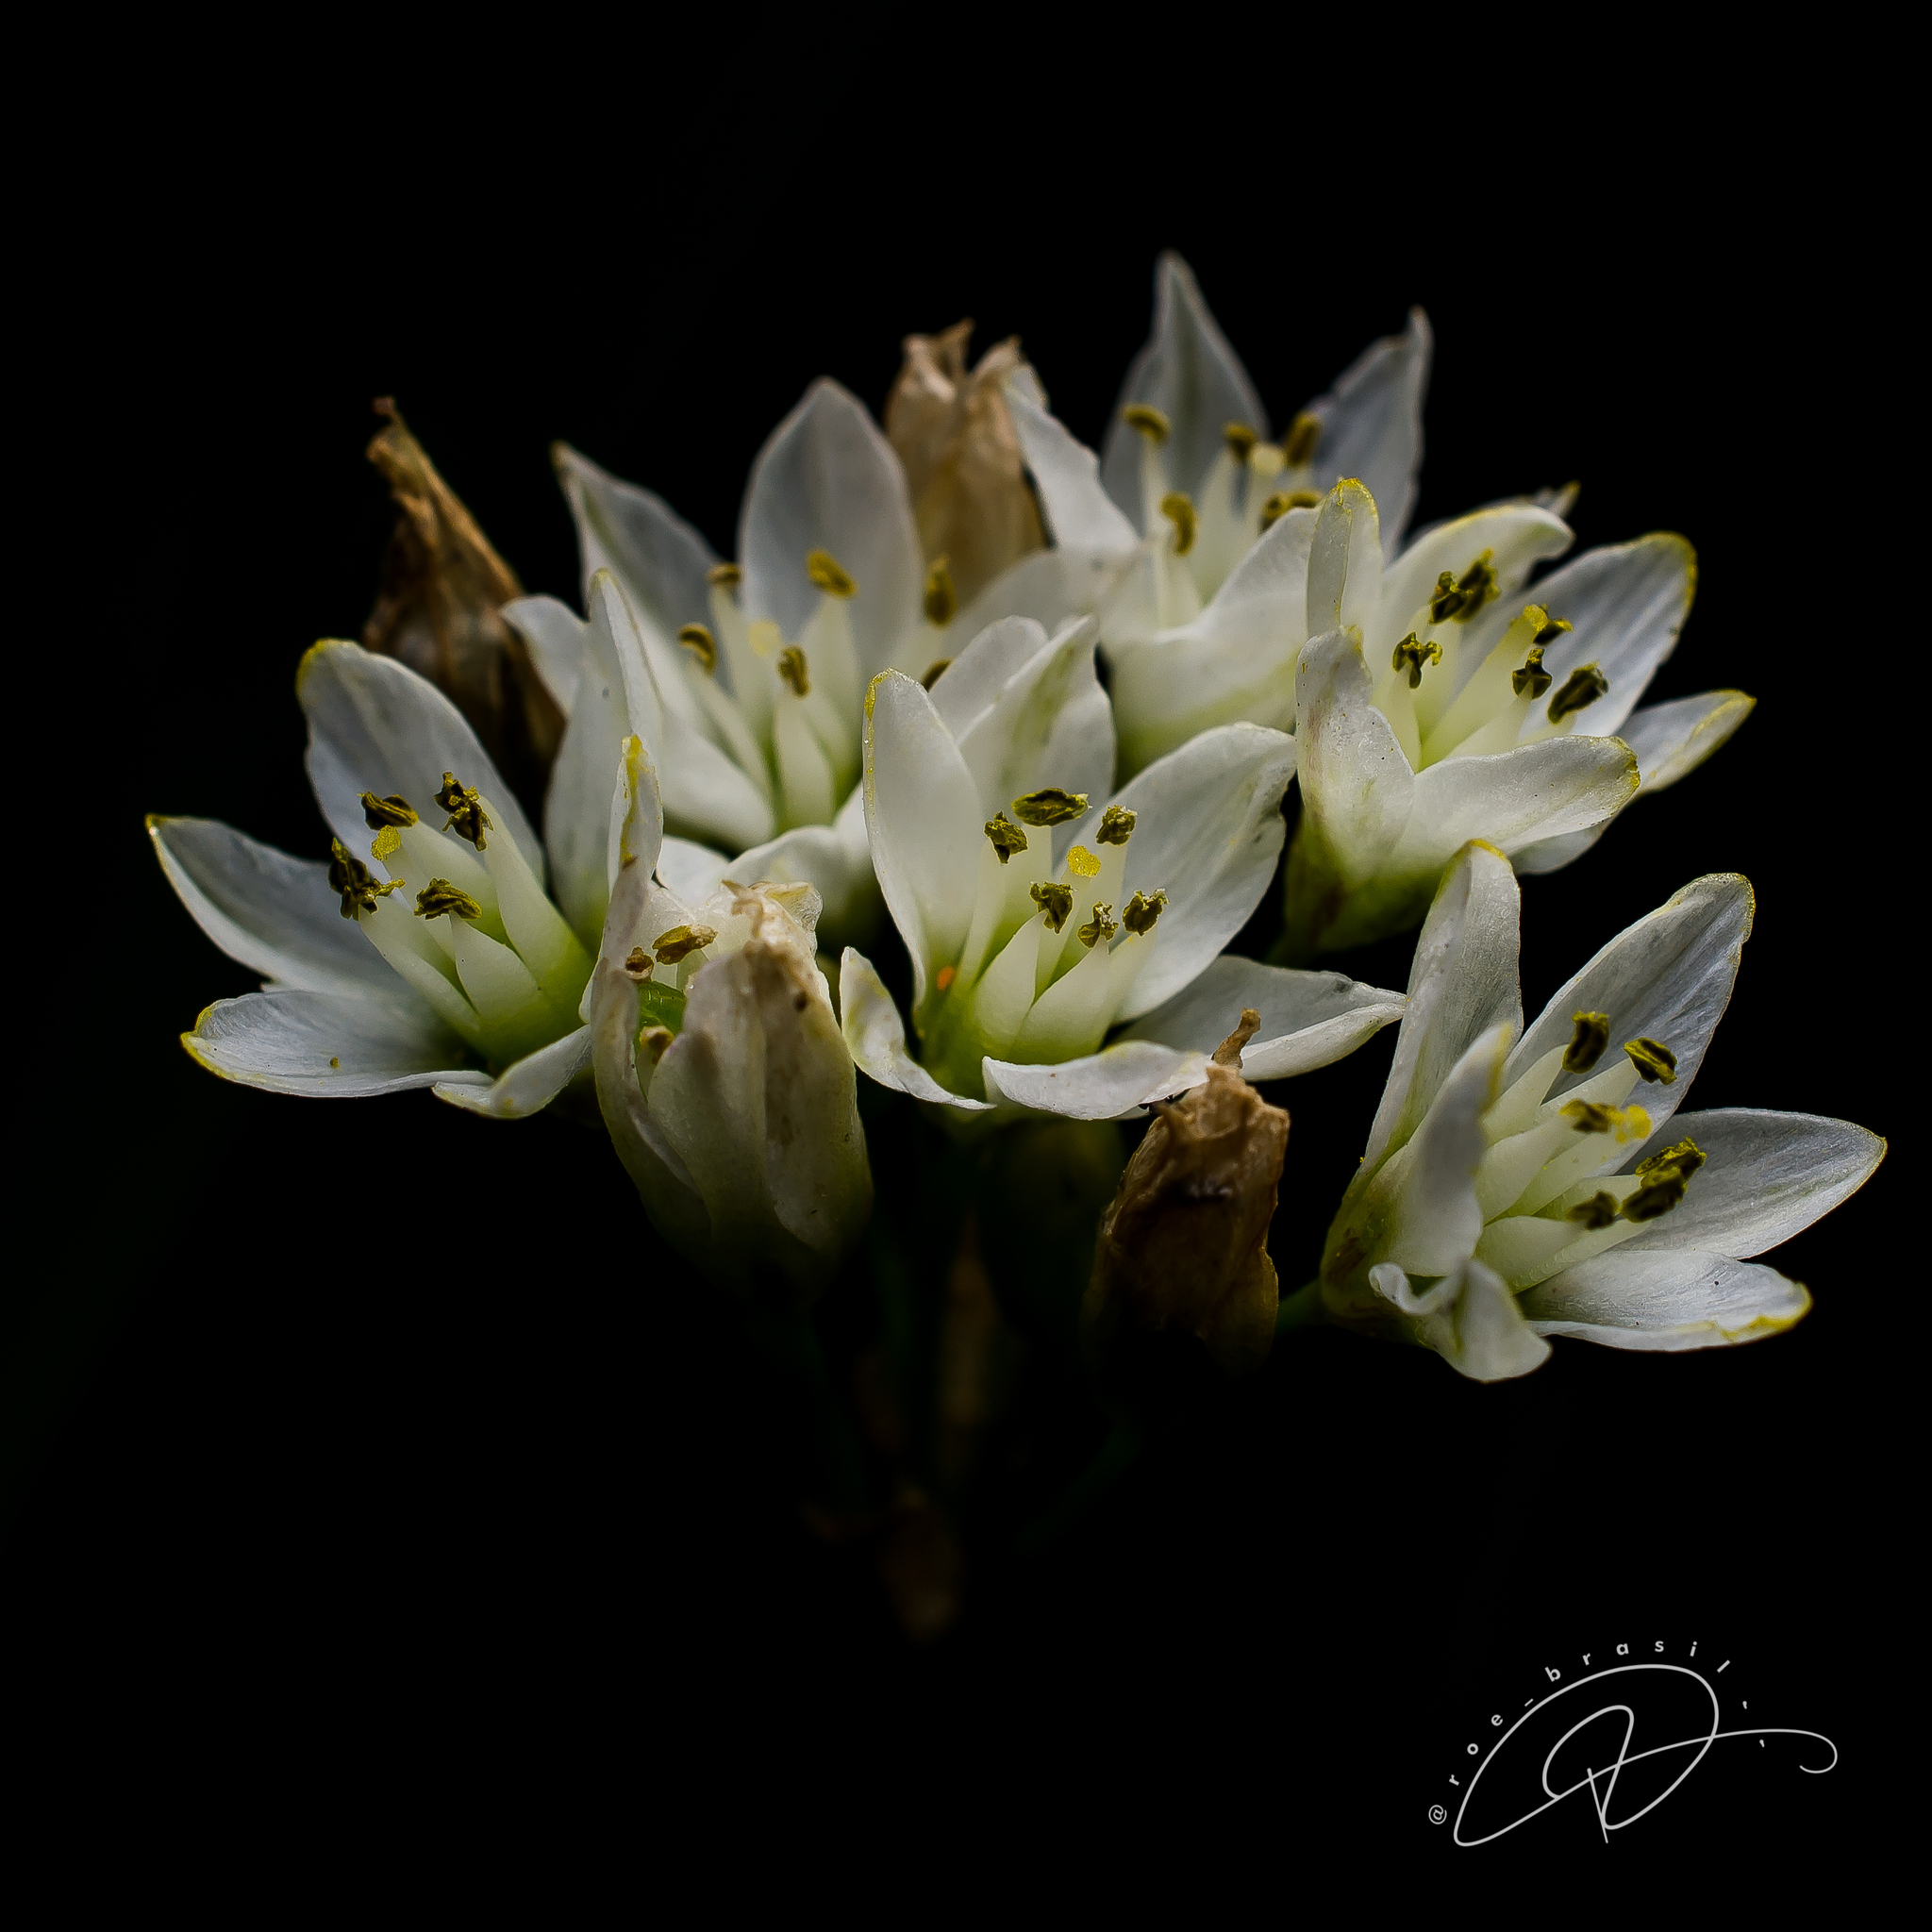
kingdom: Plantae
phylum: Tracheophyta
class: Liliopsida
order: Asparagales
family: Amaryllidaceae
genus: Nothoscordum
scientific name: Nothoscordum gracile
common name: Slender false garlic
